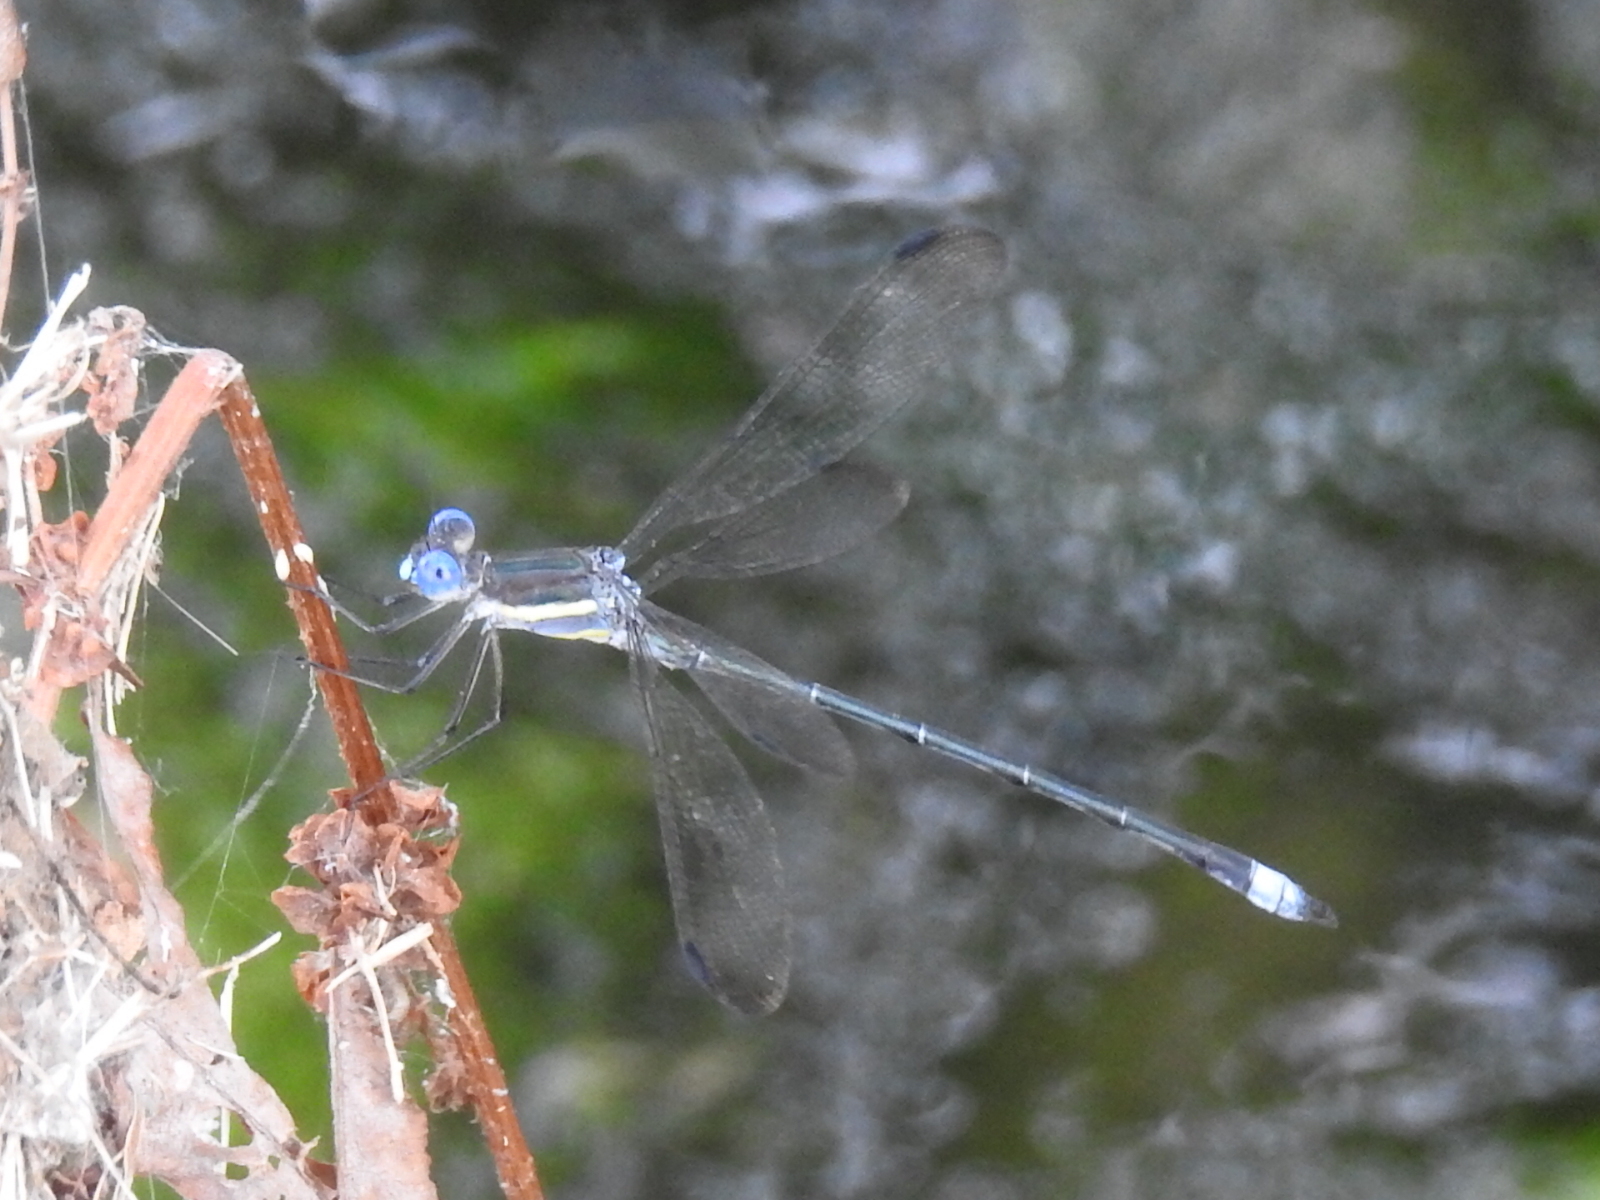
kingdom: Animalia
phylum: Arthropoda
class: Insecta
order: Odonata
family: Lestidae
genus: Archilestes
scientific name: Archilestes grandis
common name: Great spreadwing
